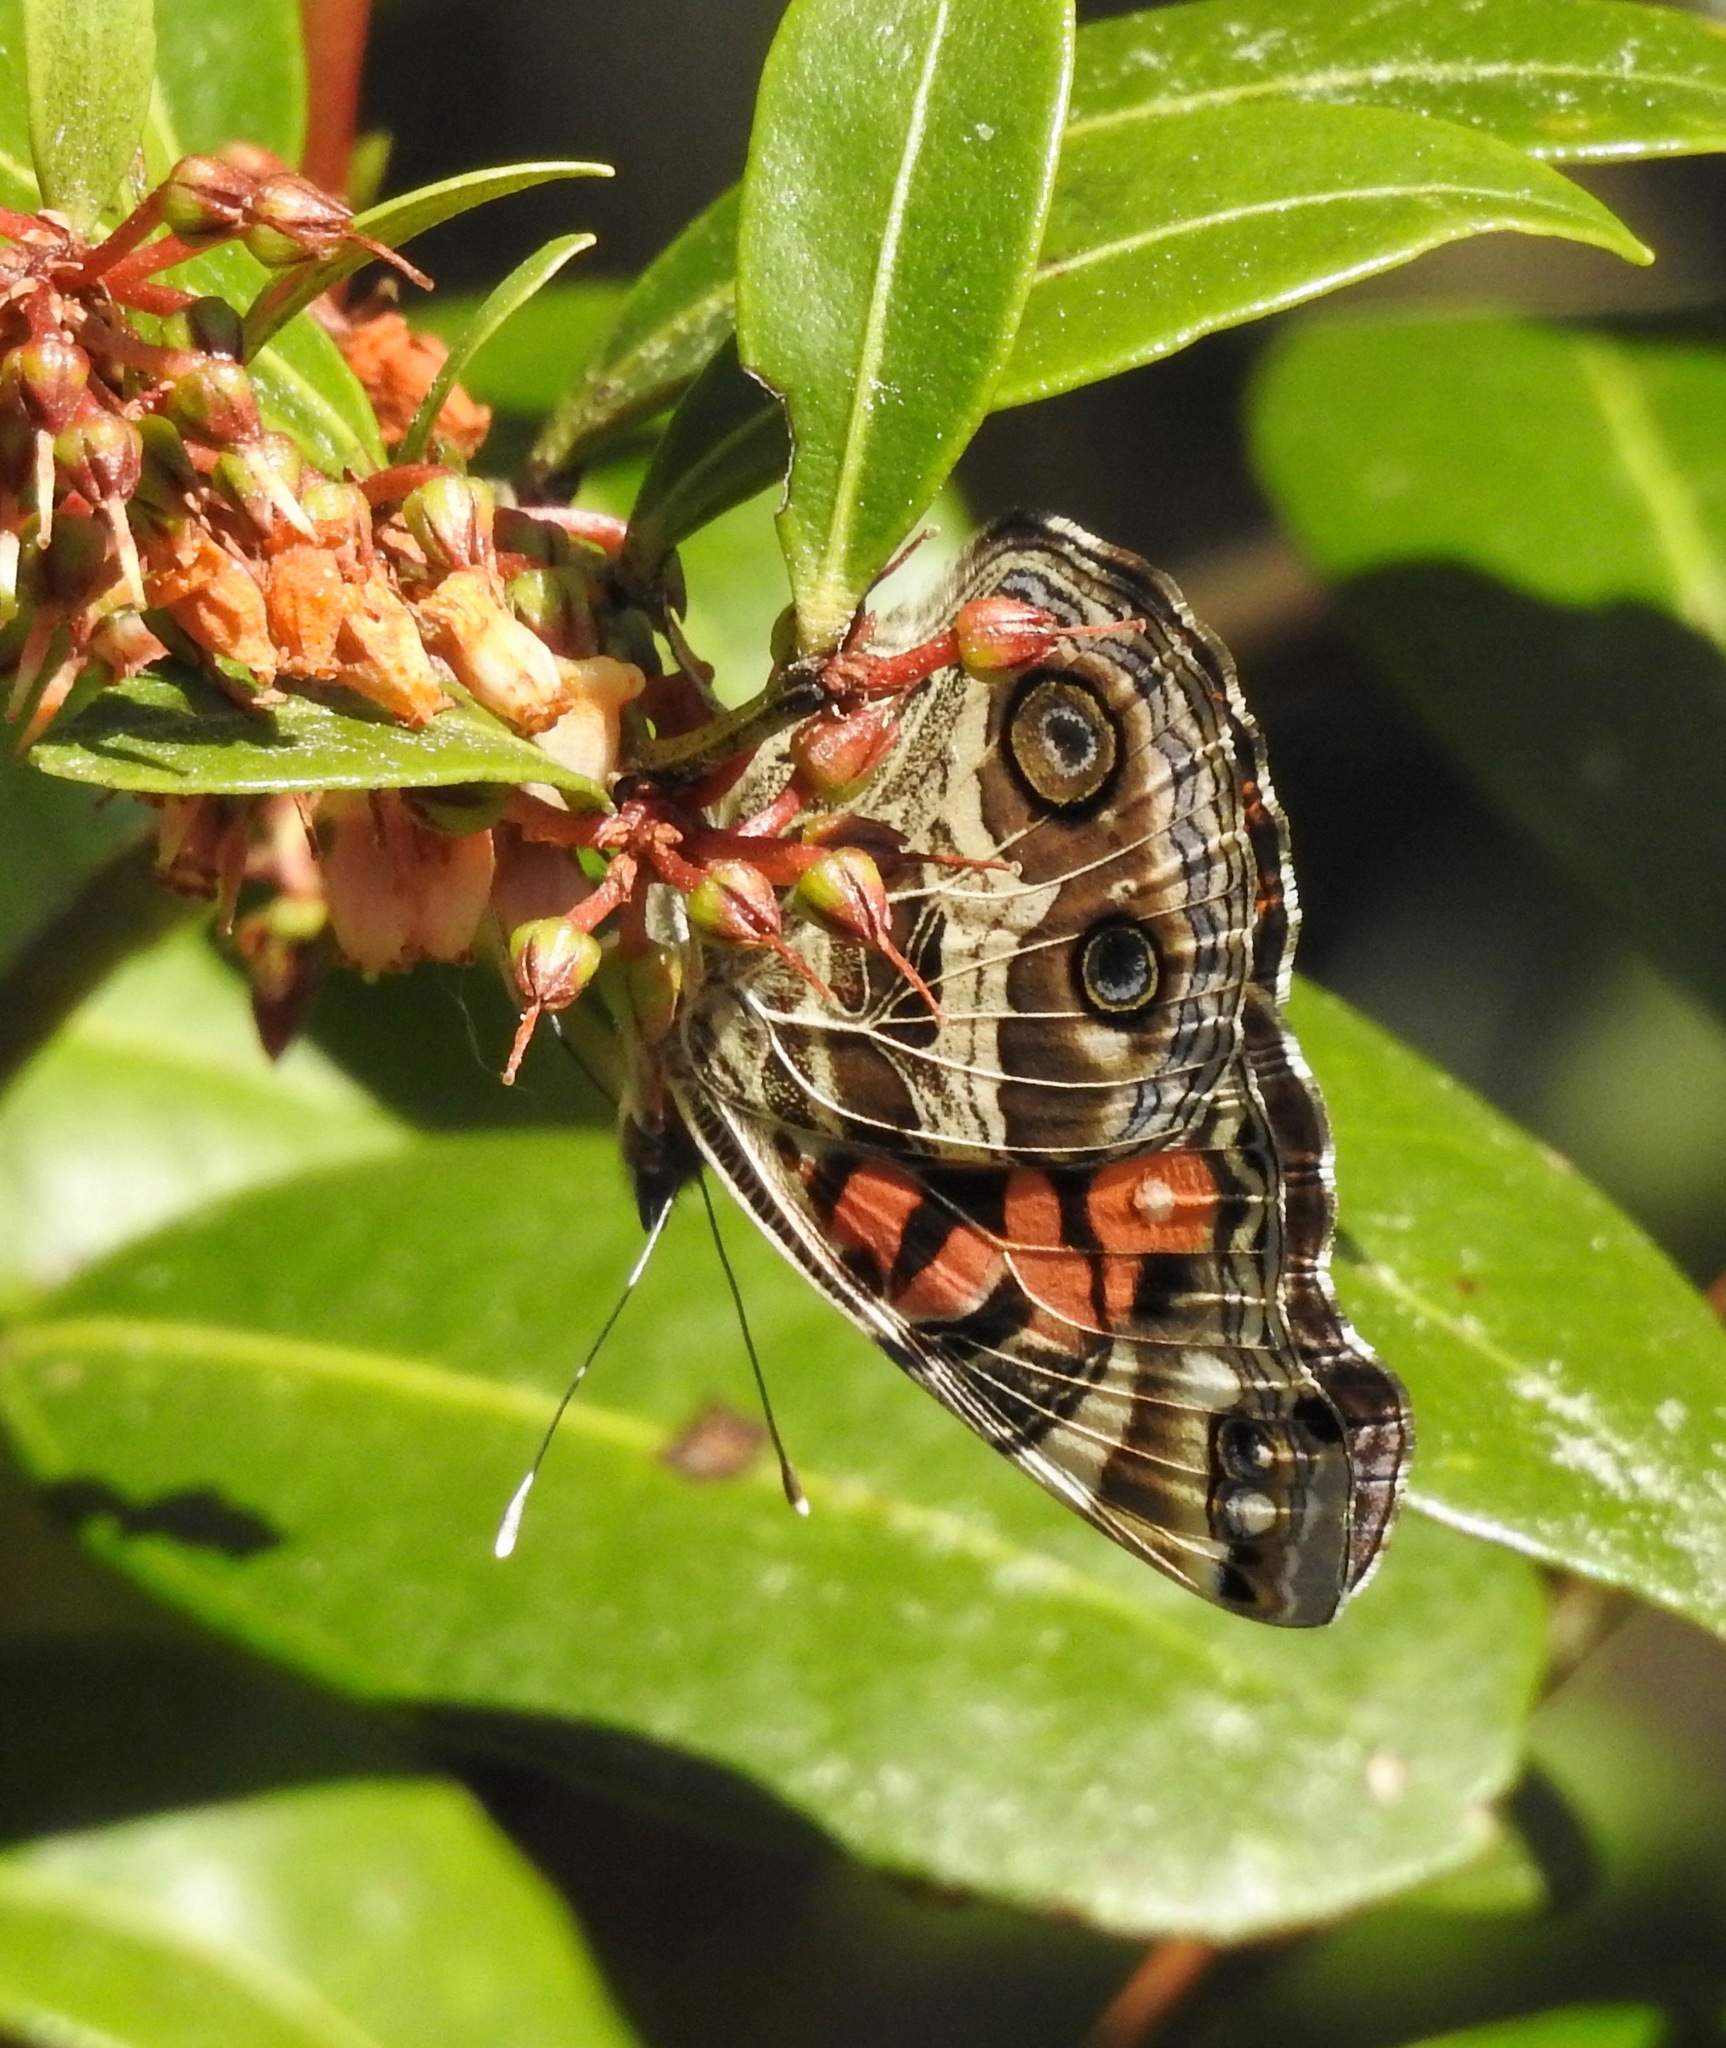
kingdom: Animalia
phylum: Arthropoda
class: Insecta
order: Lepidoptera
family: Nymphalidae
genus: Vanessa
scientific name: Vanessa virginiensis
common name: American lady
